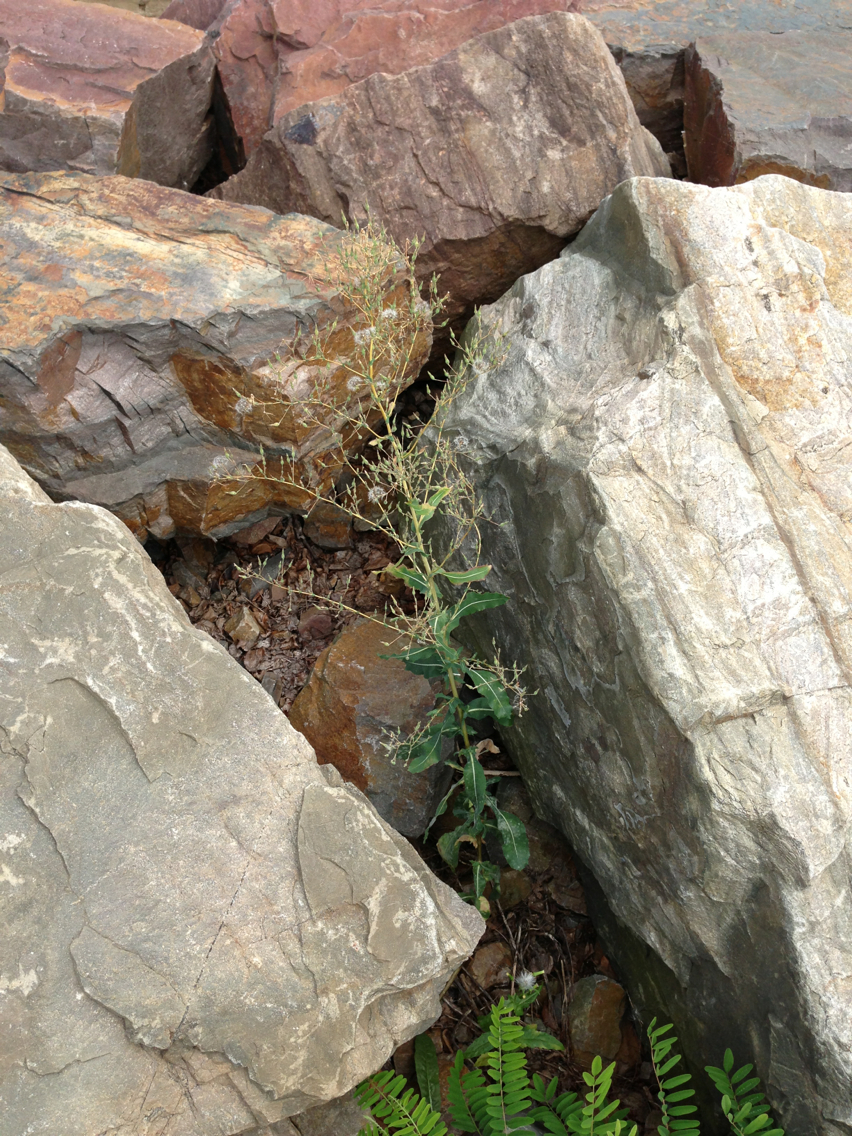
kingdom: Plantae
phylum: Tracheophyta
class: Magnoliopsida
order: Asterales
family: Asteraceae
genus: Lactuca
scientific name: Lactuca serriola
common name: Prickly lettuce
